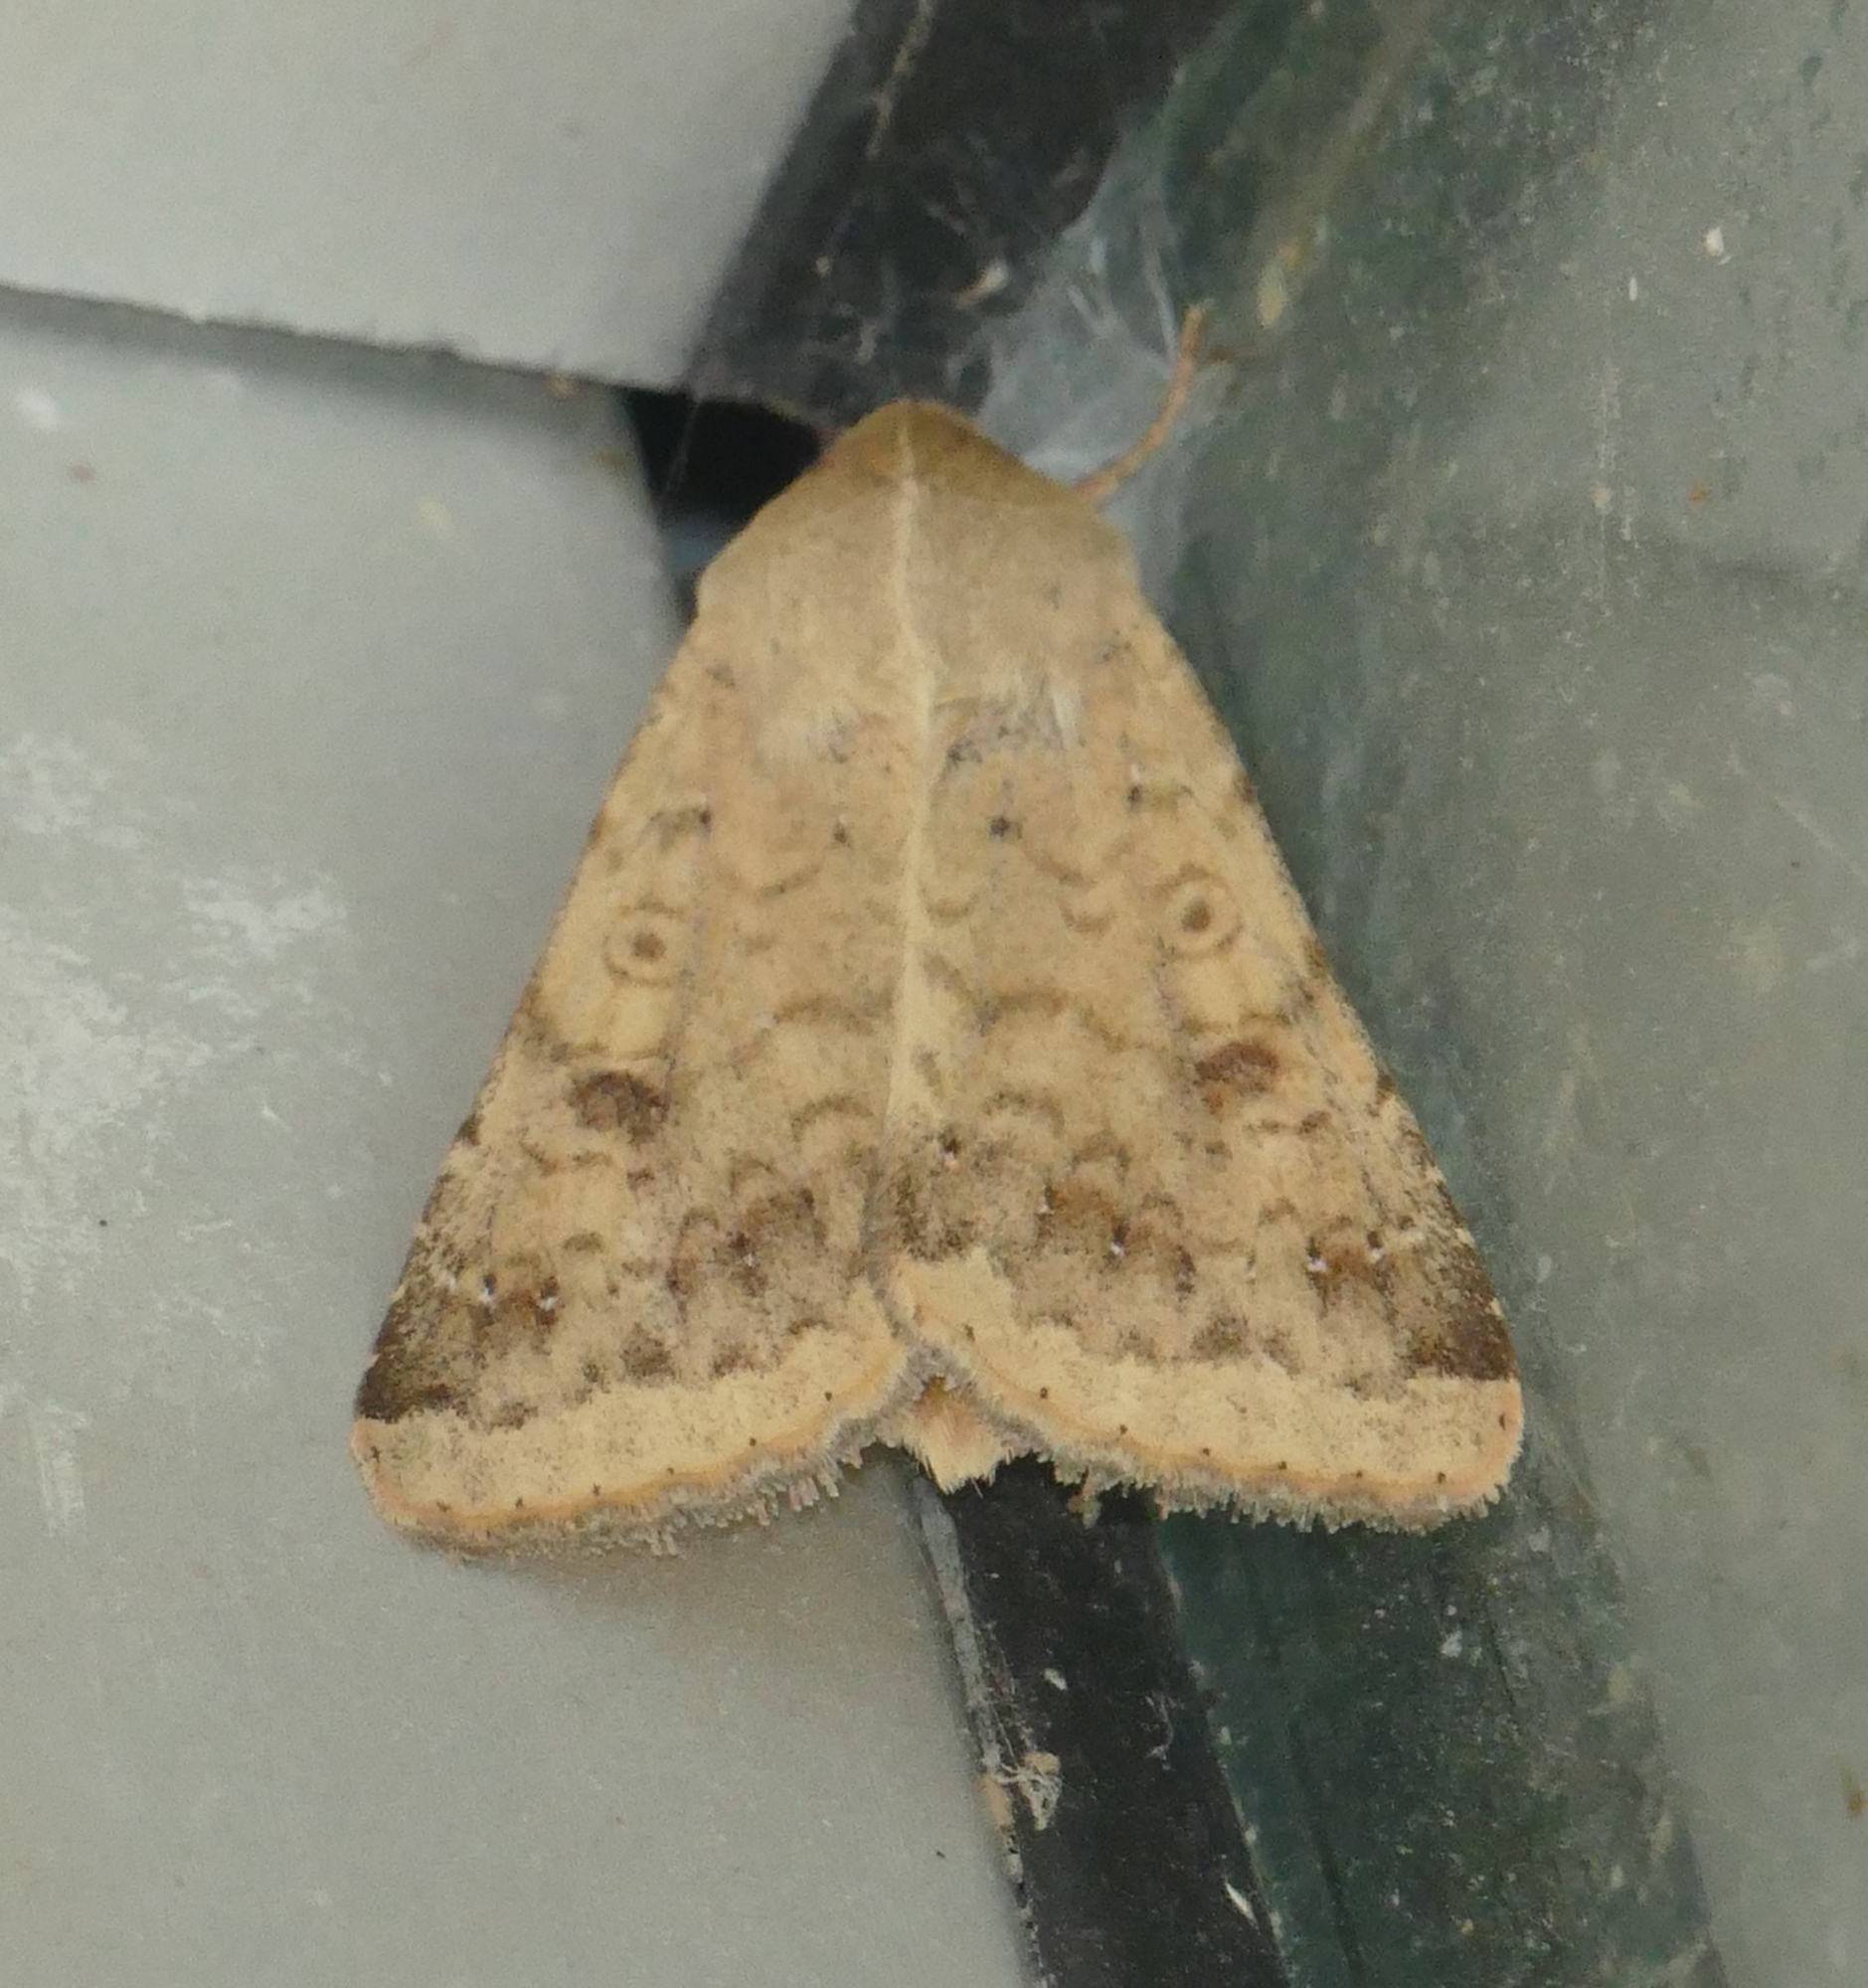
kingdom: Animalia
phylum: Arthropoda
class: Insecta
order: Lepidoptera
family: Noctuidae
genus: Helicoverpa
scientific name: Helicoverpa zea
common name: Bollworm
